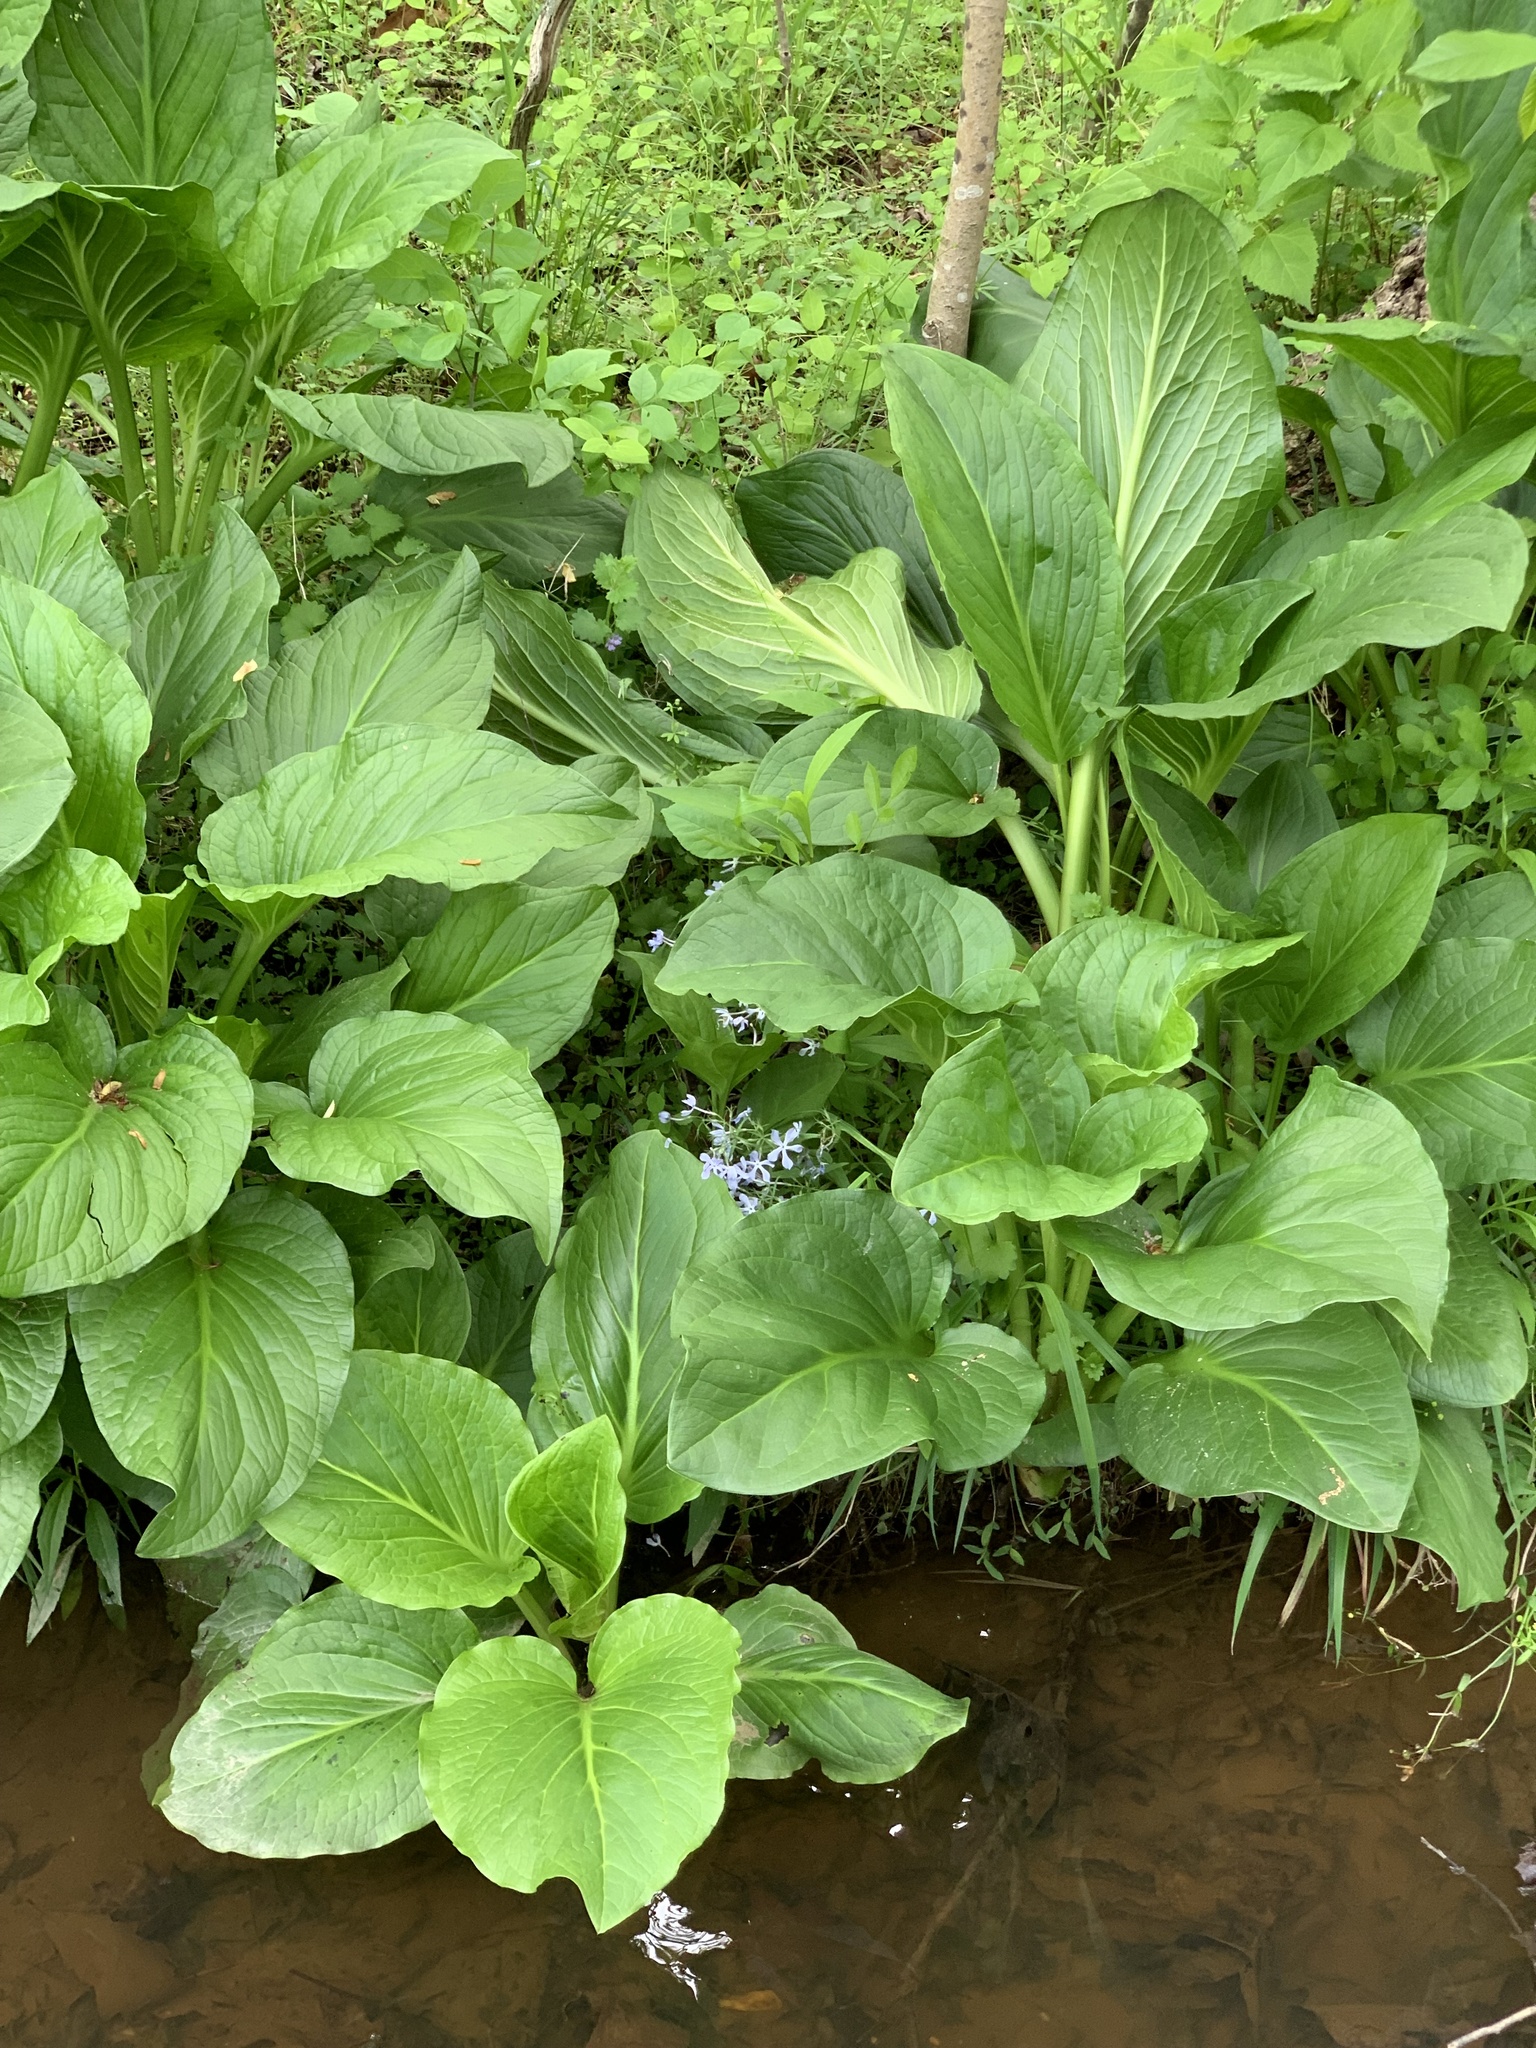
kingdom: Plantae
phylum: Tracheophyta
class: Liliopsida
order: Alismatales
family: Araceae
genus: Symplocarpus
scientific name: Symplocarpus foetidus
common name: Eastern skunk cabbage
